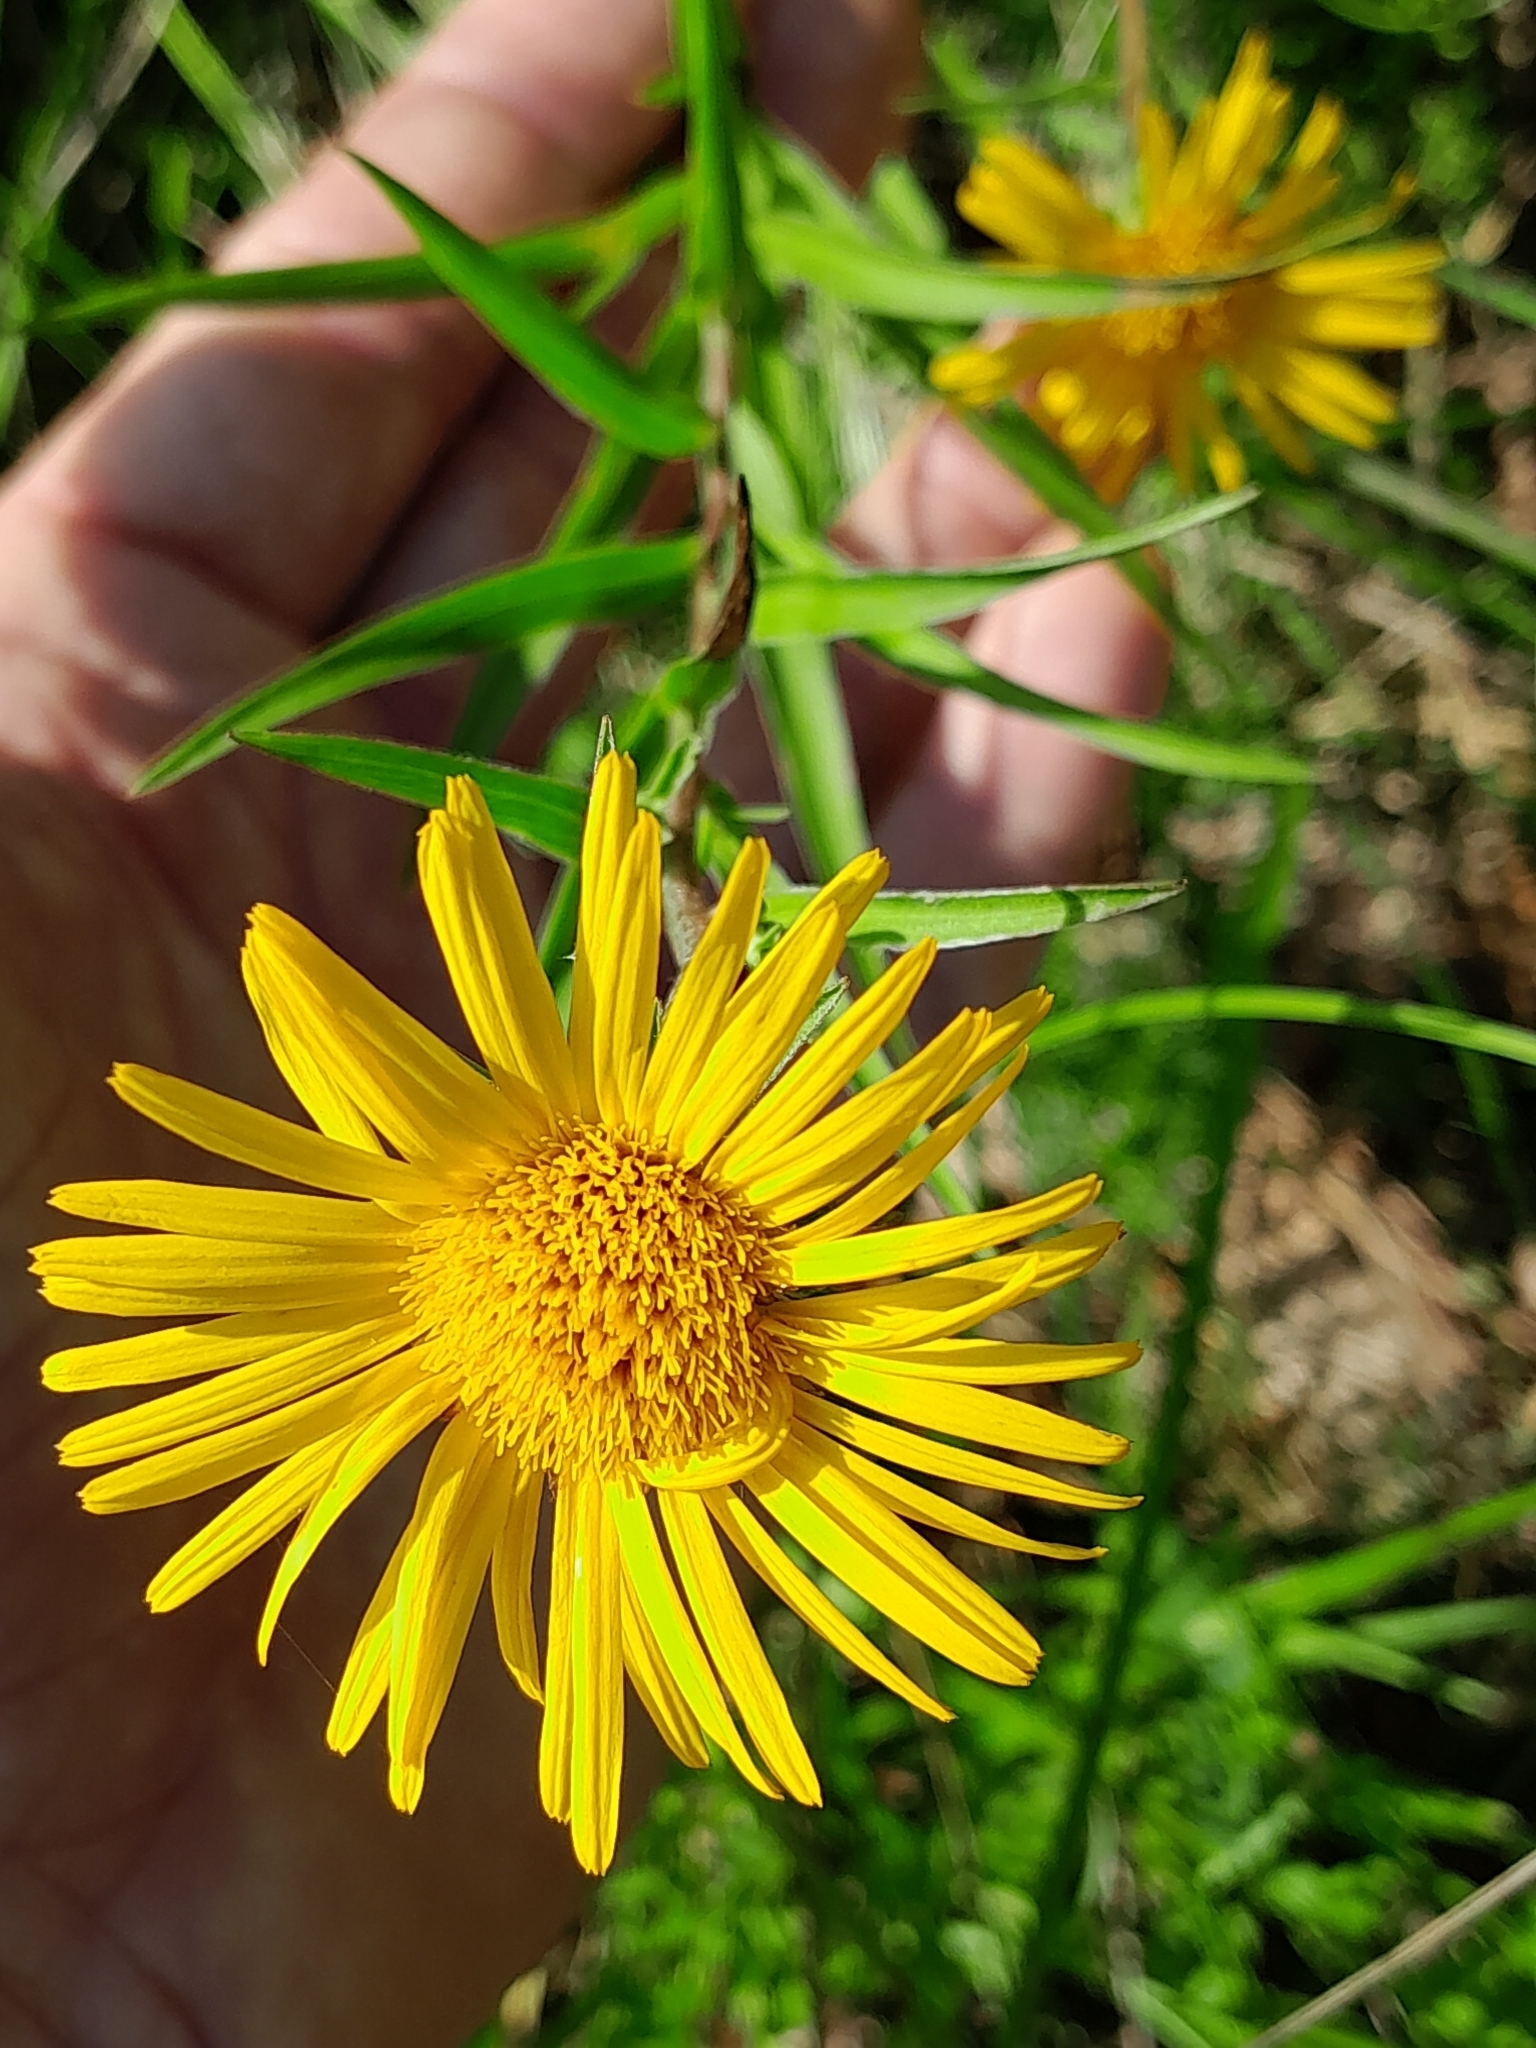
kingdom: Plantae
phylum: Tracheophyta
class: Magnoliopsida
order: Asterales
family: Asteraceae
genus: Pentanema
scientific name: Pentanema ensifolium
